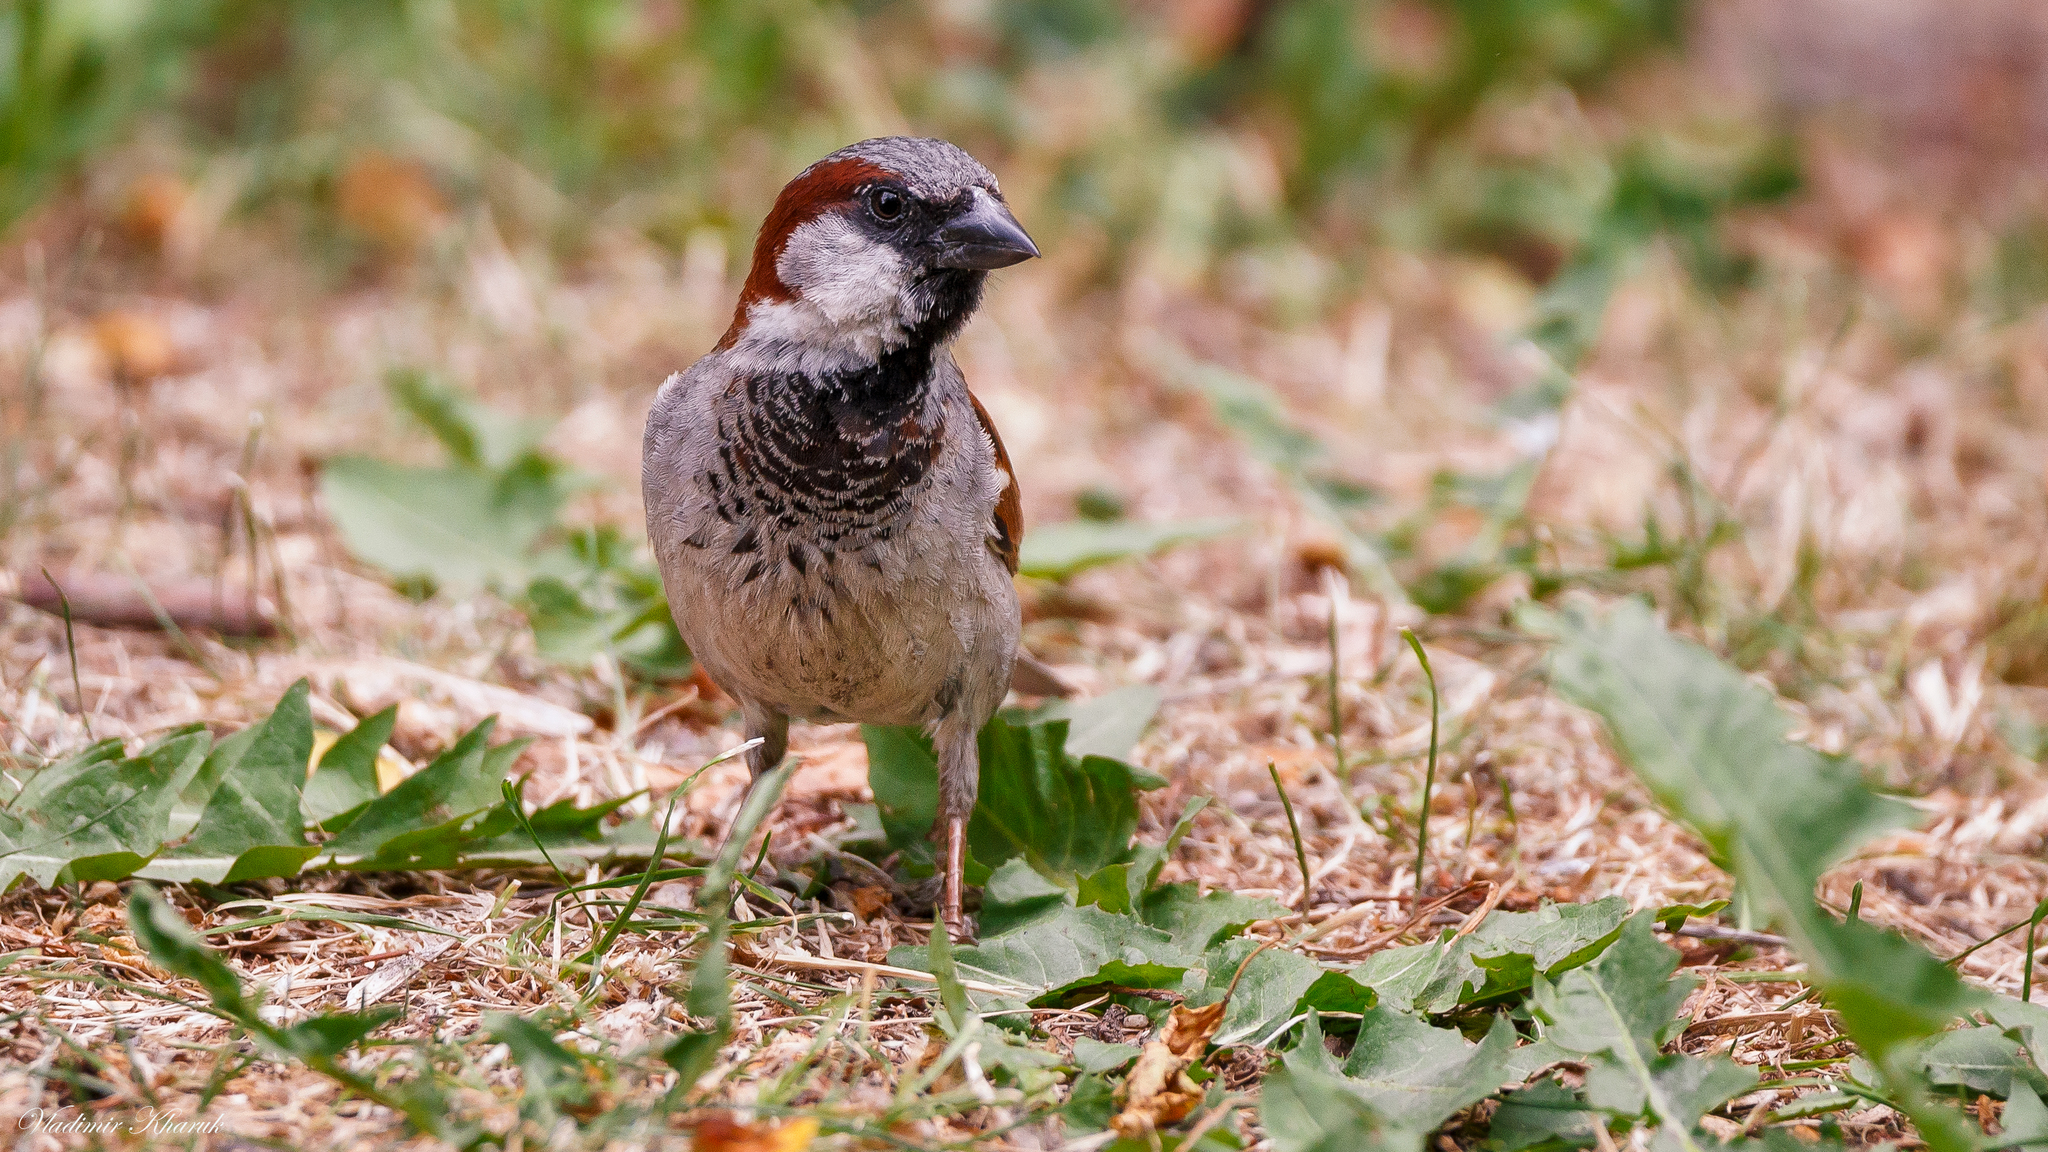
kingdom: Animalia
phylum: Chordata
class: Aves
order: Passeriformes
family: Passeridae
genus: Passer
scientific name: Passer domesticus
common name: House sparrow
